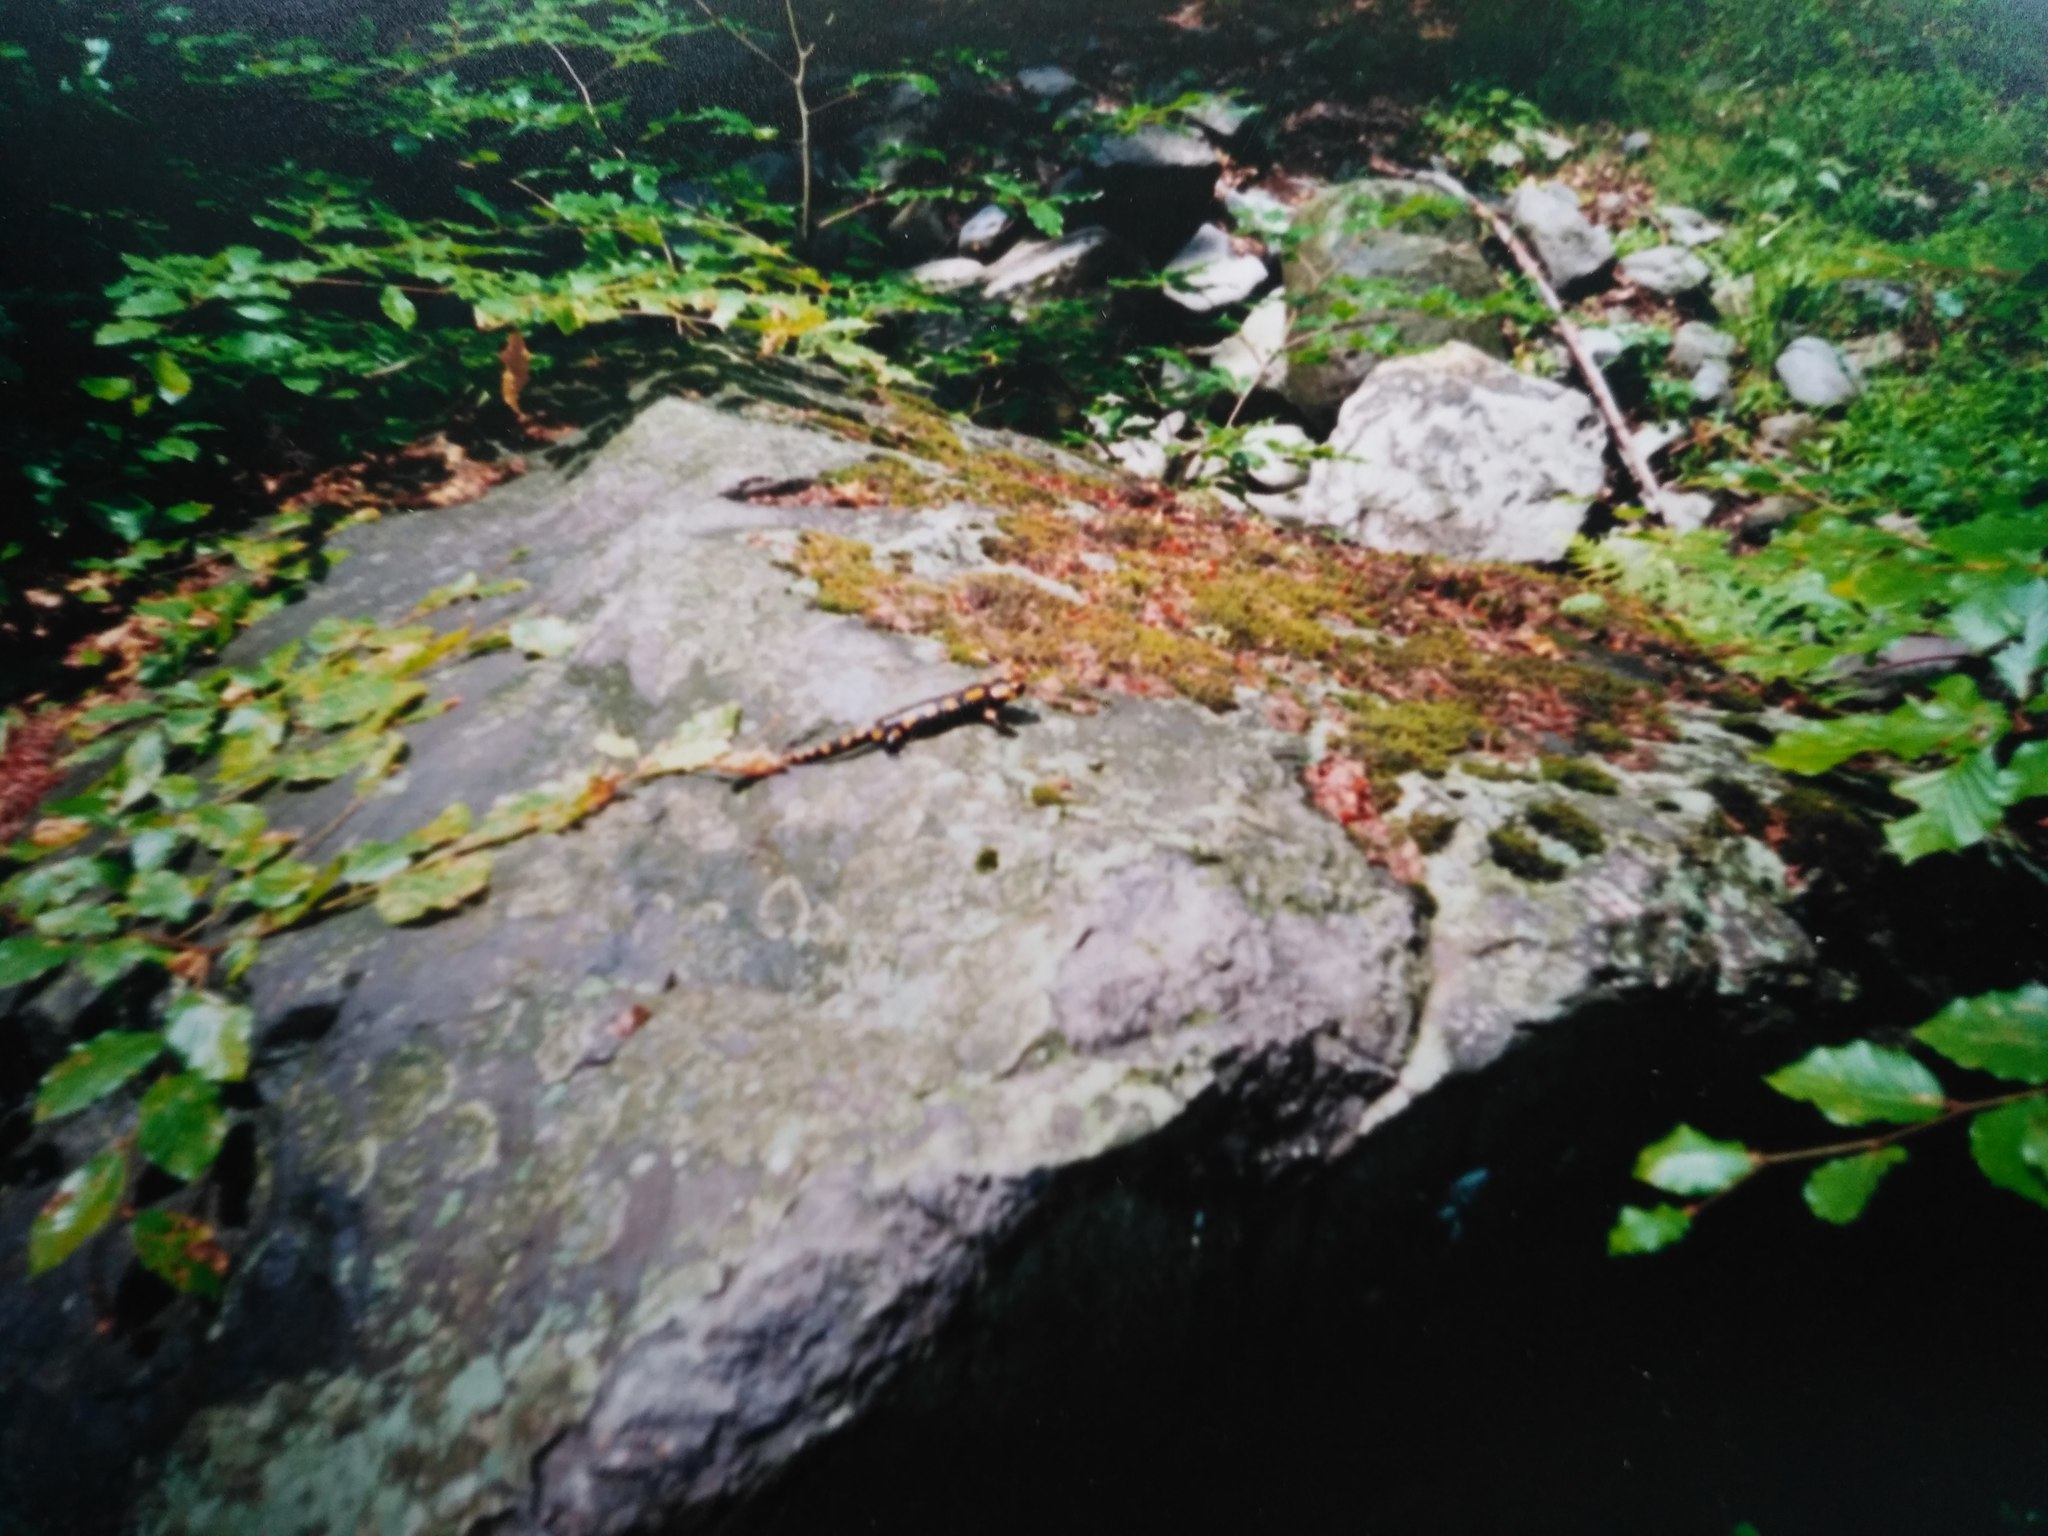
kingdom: Animalia
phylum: Chordata
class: Amphibia
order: Caudata
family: Salamandridae
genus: Salamandra
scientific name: Salamandra salamandra
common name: Fire salamander
